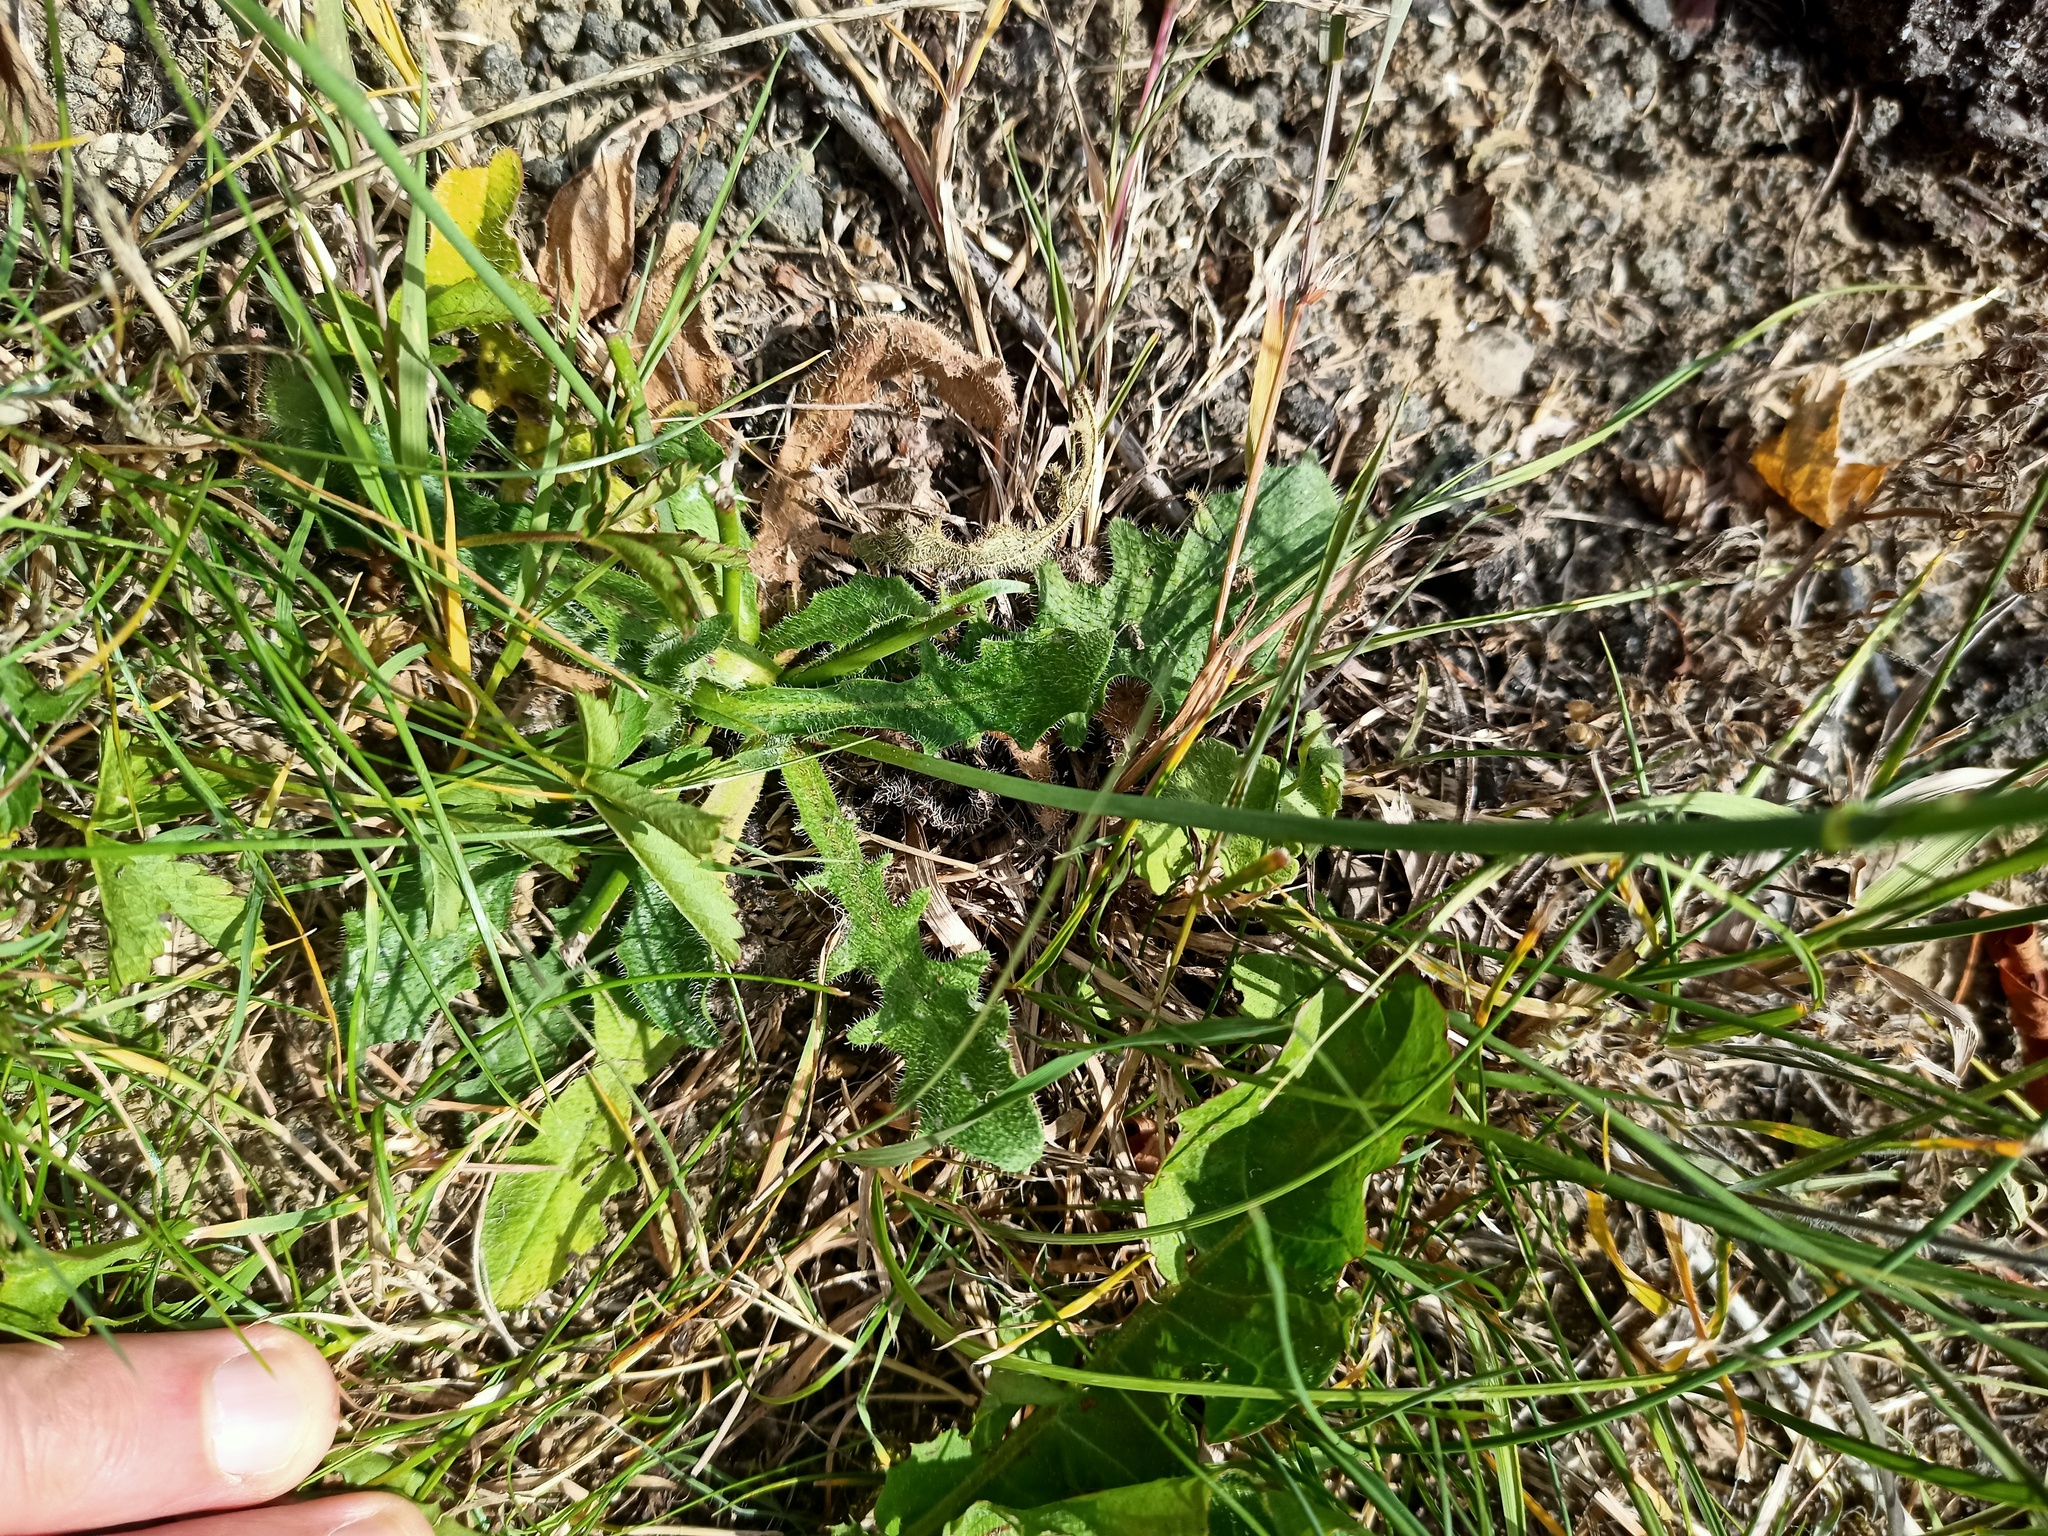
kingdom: Plantae
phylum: Tracheophyta
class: Magnoliopsida
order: Asterales
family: Asteraceae
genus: Hypochaeris
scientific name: Hypochaeris radicata
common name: Flatweed
